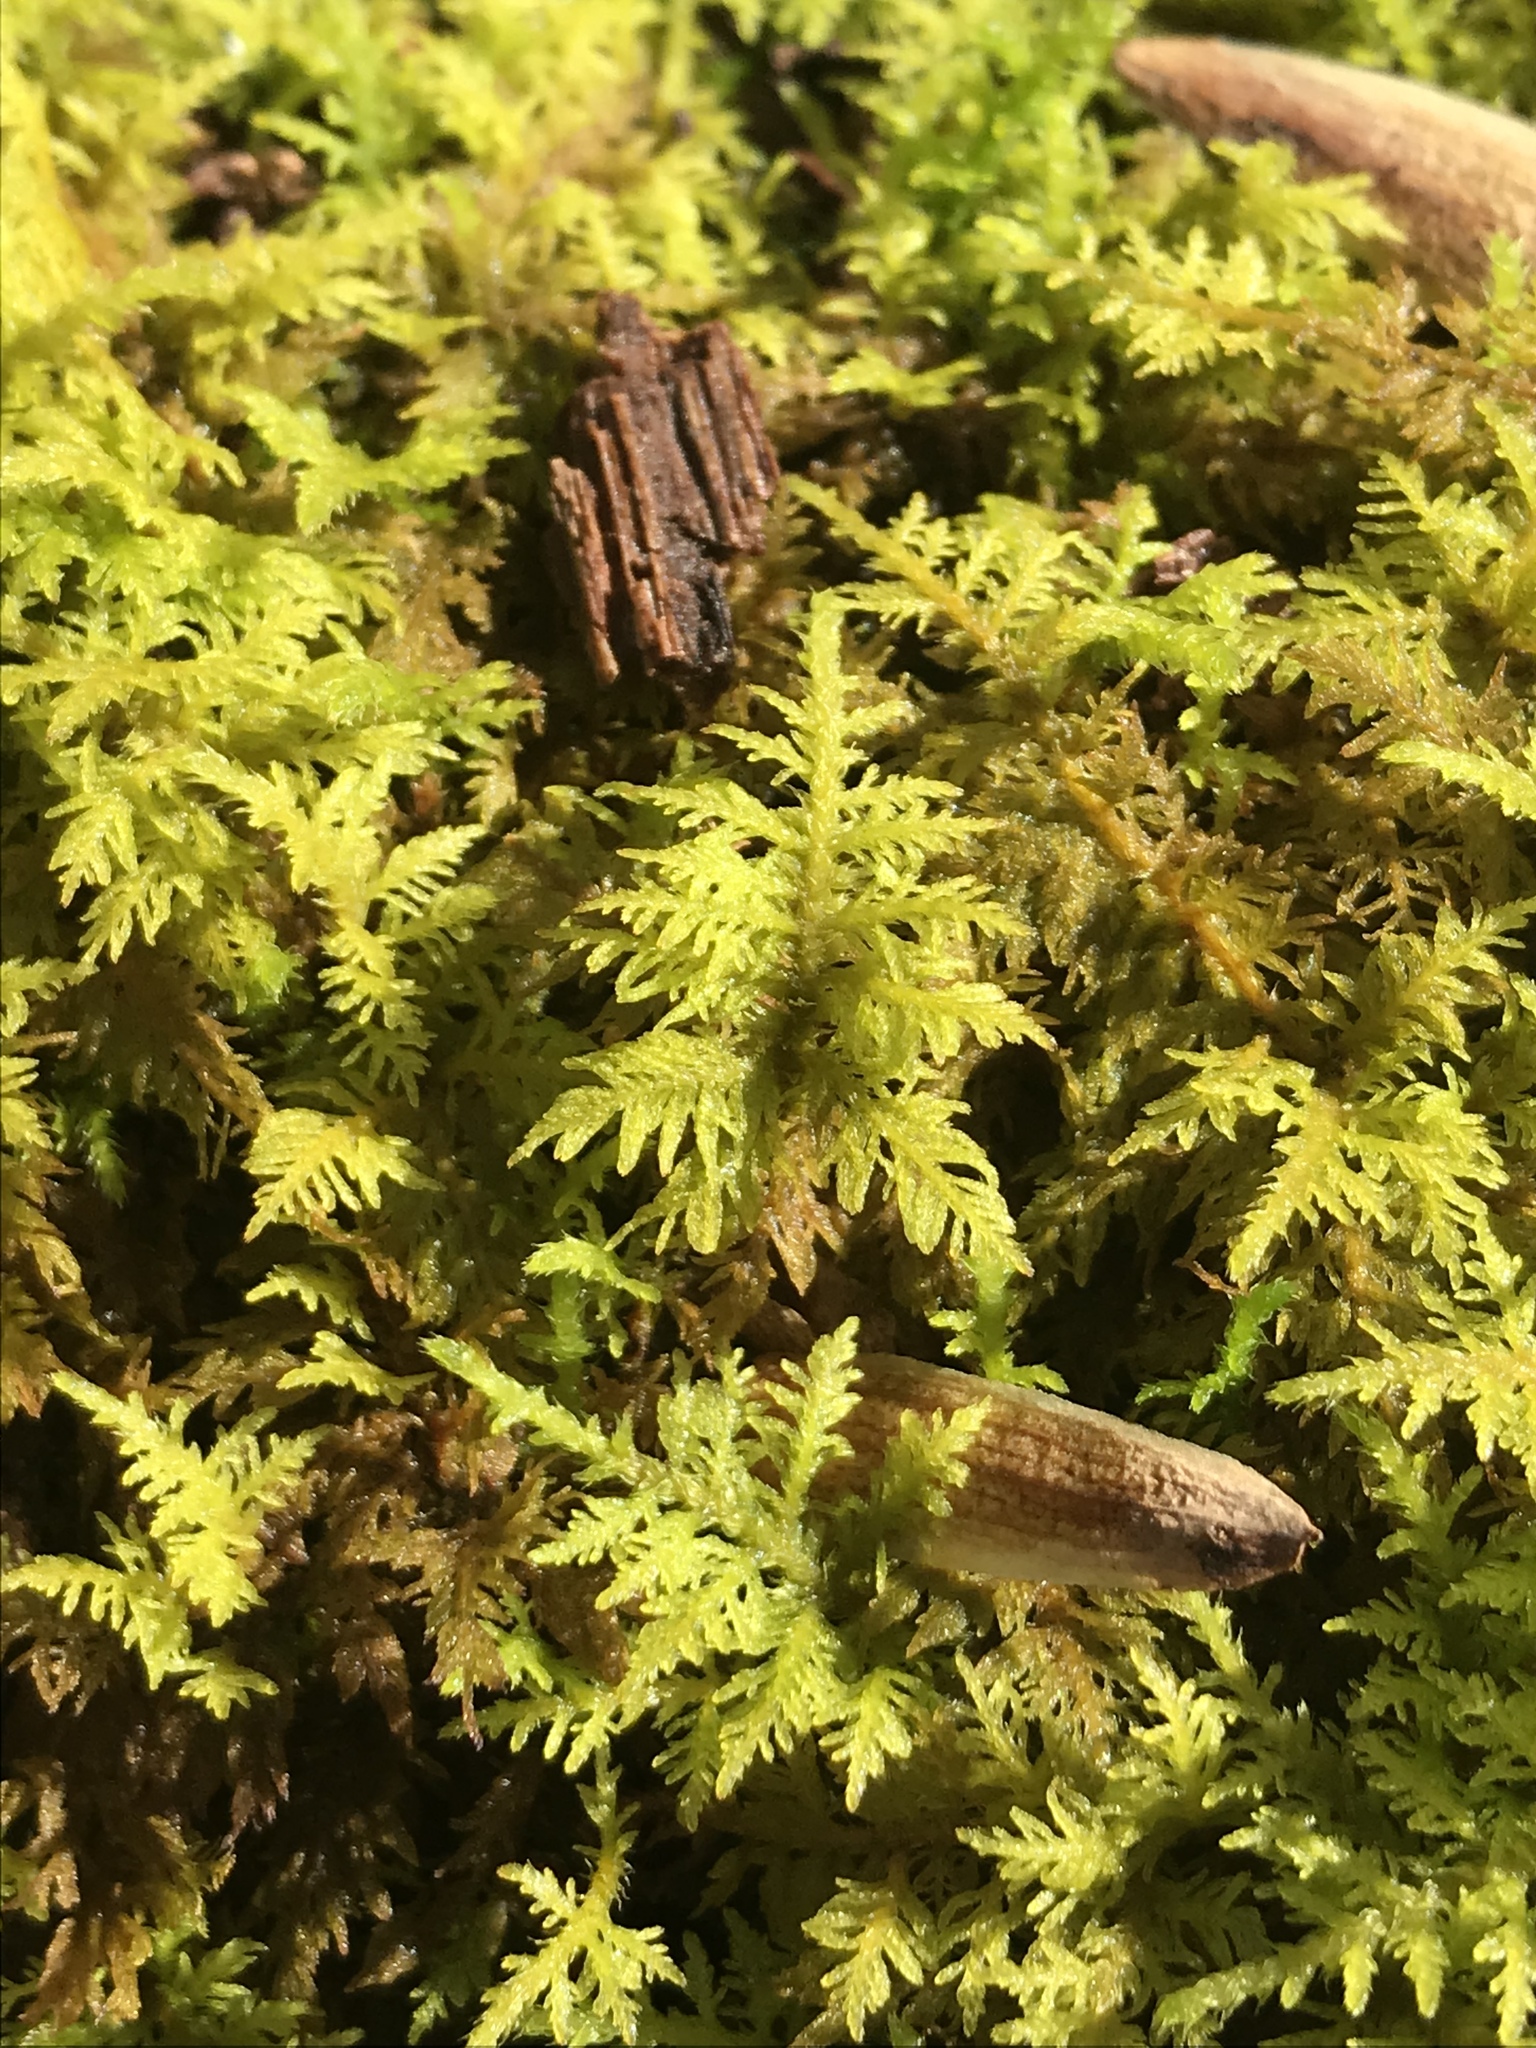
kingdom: Plantae
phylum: Bryophyta
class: Bryopsida
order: Hypnales
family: Thuidiaceae
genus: Thuidium
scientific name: Thuidium delicatulum
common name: Delicate fern moss
